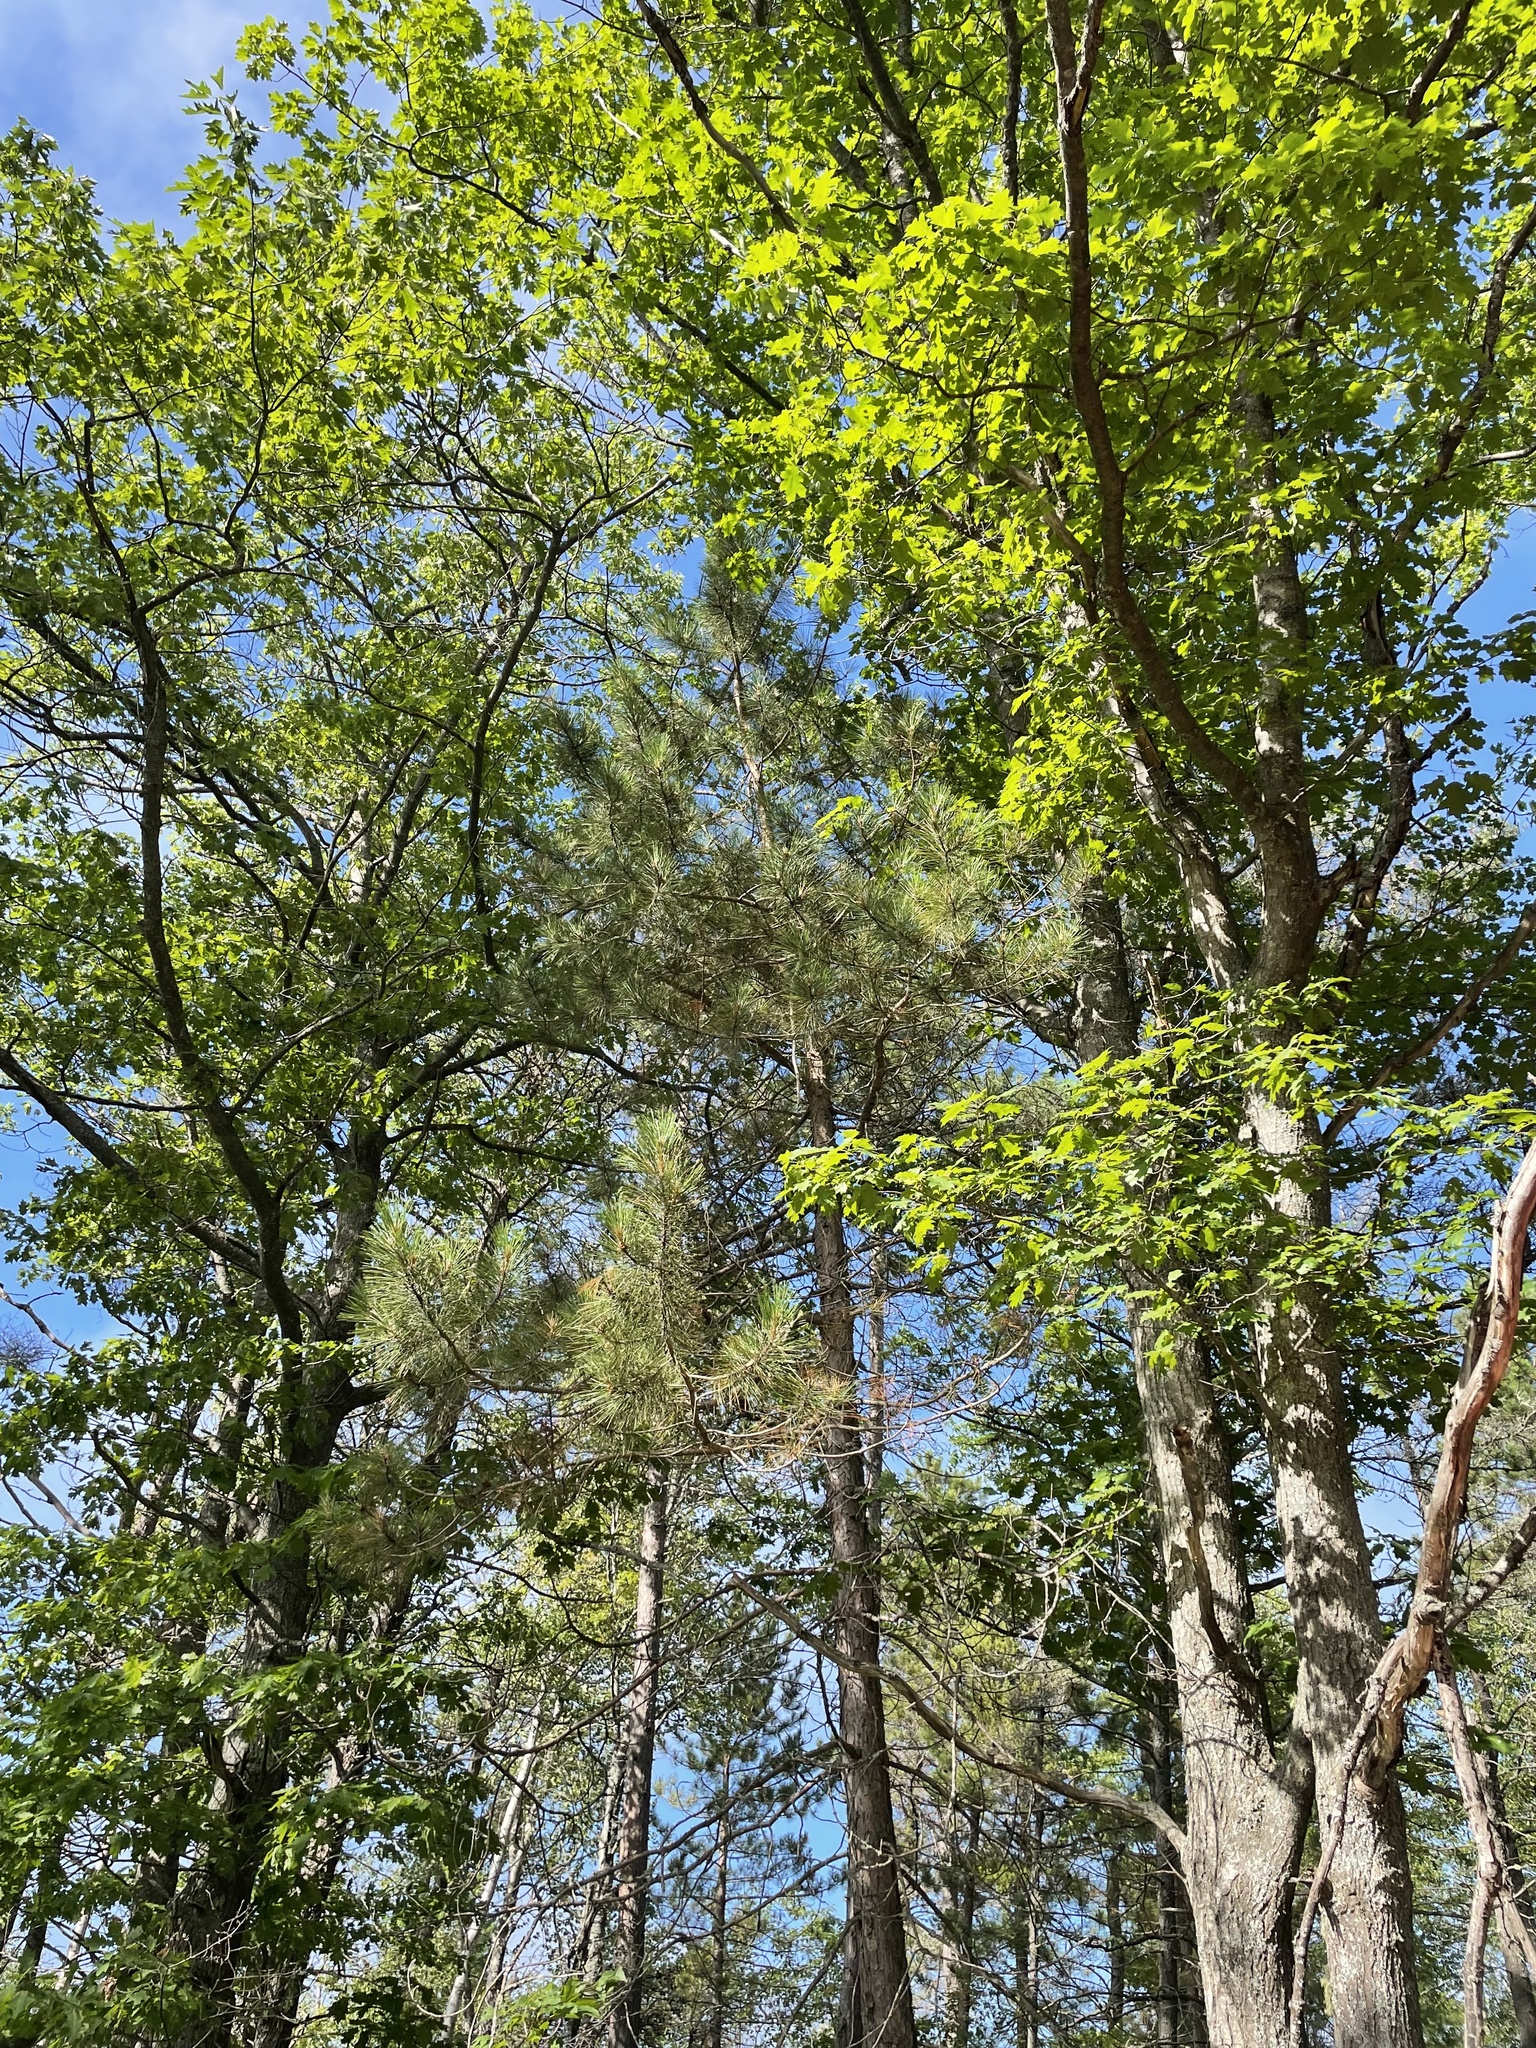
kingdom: Plantae
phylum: Tracheophyta
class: Pinopsida
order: Pinales
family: Pinaceae
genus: Pinus
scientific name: Pinus resinosa
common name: Norway pine
